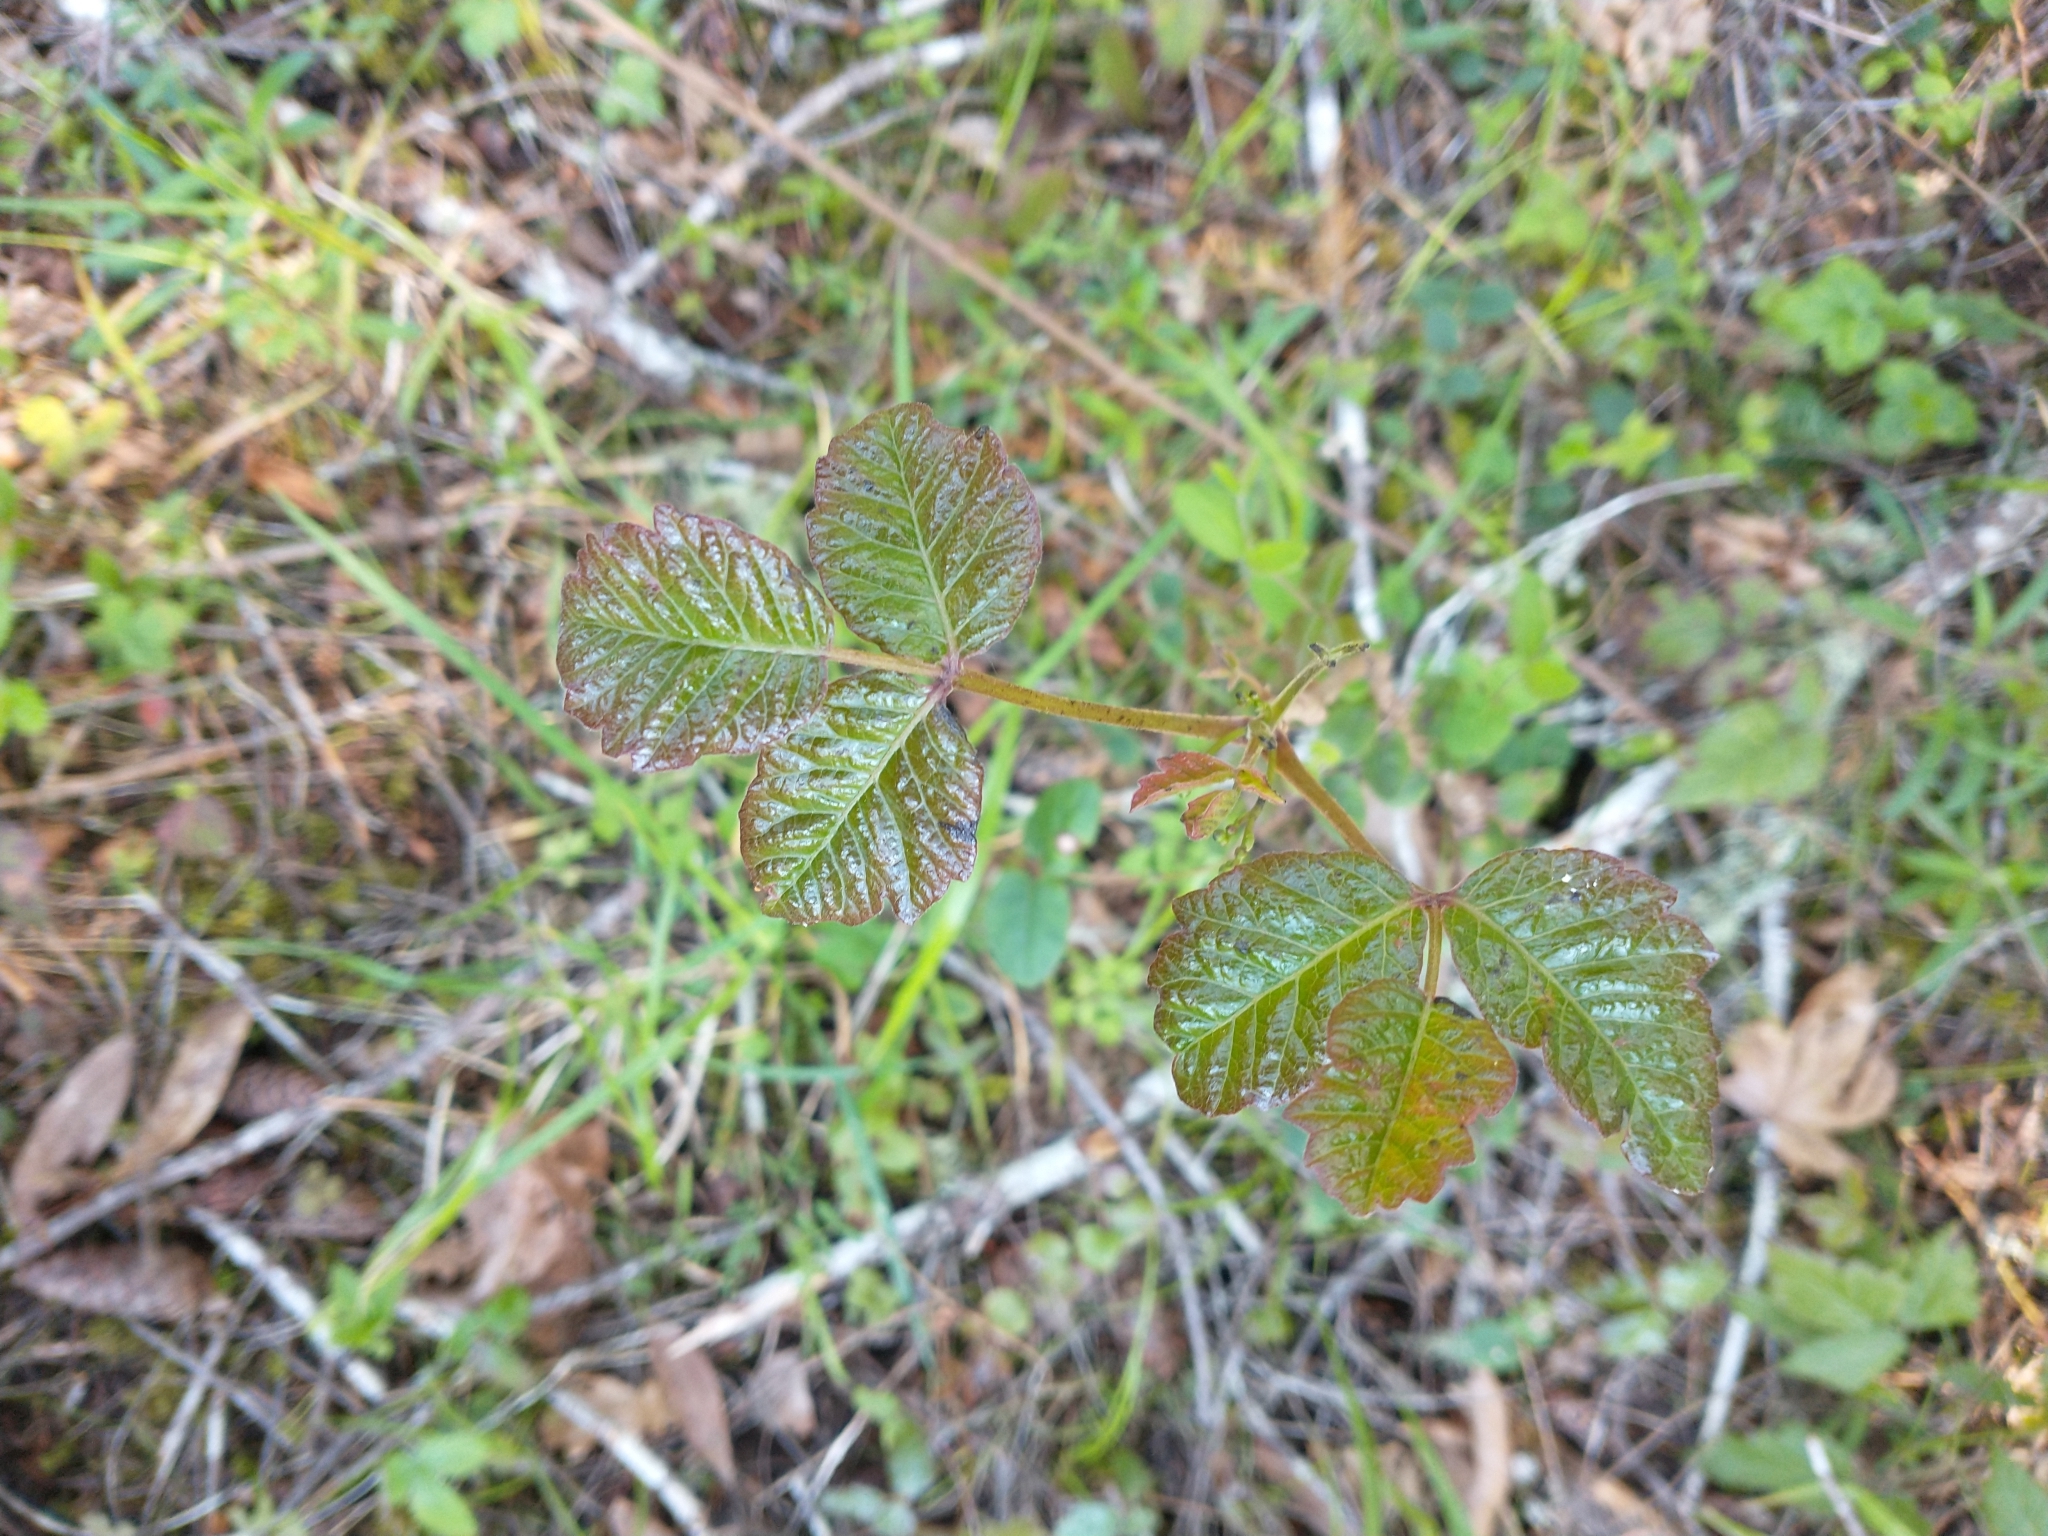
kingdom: Plantae
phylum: Tracheophyta
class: Magnoliopsida
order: Sapindales
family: Anacardiaceae
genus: Toxicodendron
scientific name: Toxicodendron diversilobum
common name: Pacific poison-oak
